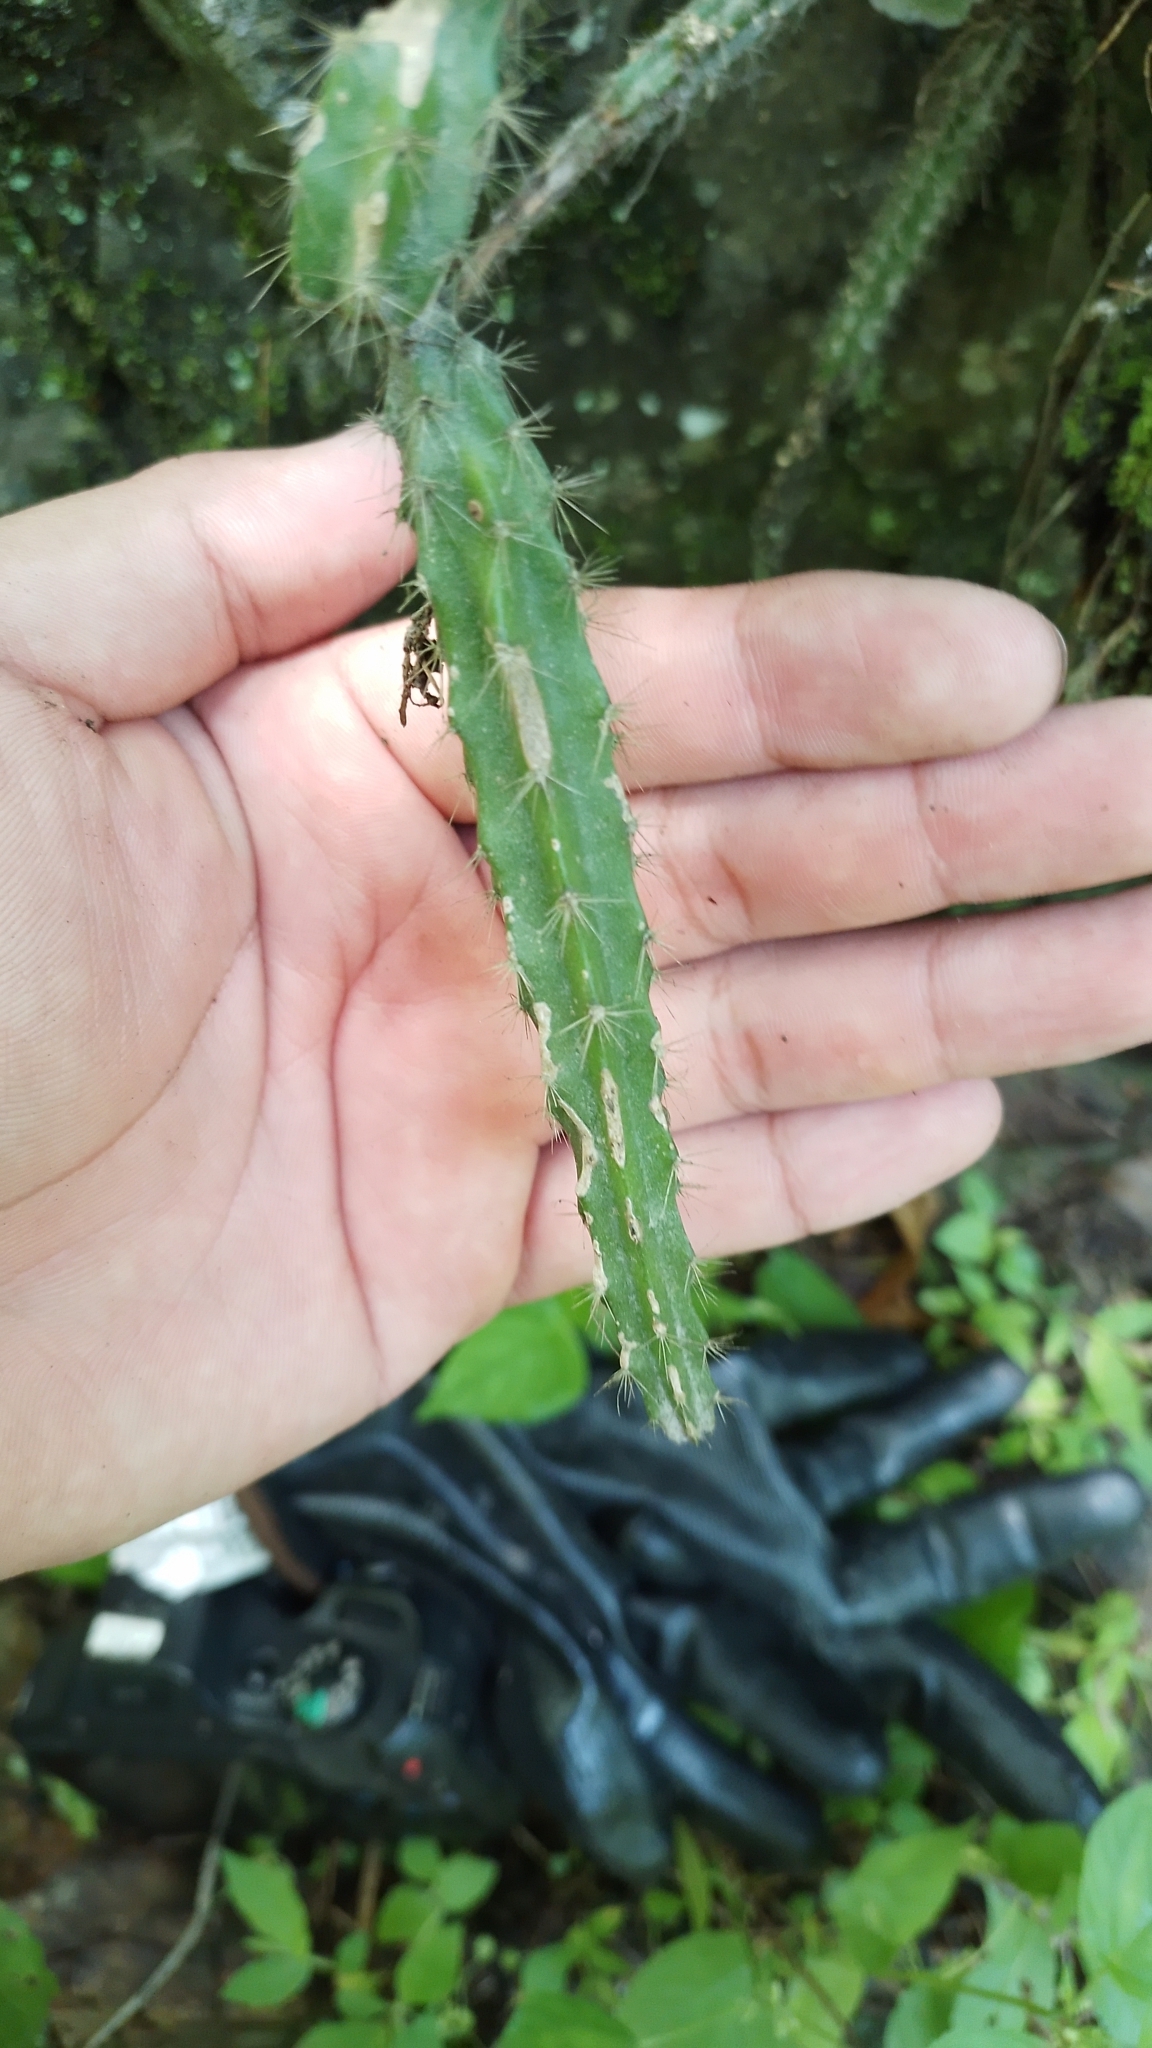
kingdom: Plantae
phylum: Tracheophyta
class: Magnoliopsida
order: Caryophyllales
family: Cactaceae
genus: Selenicereus
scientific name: Selenicereus atropilosus
